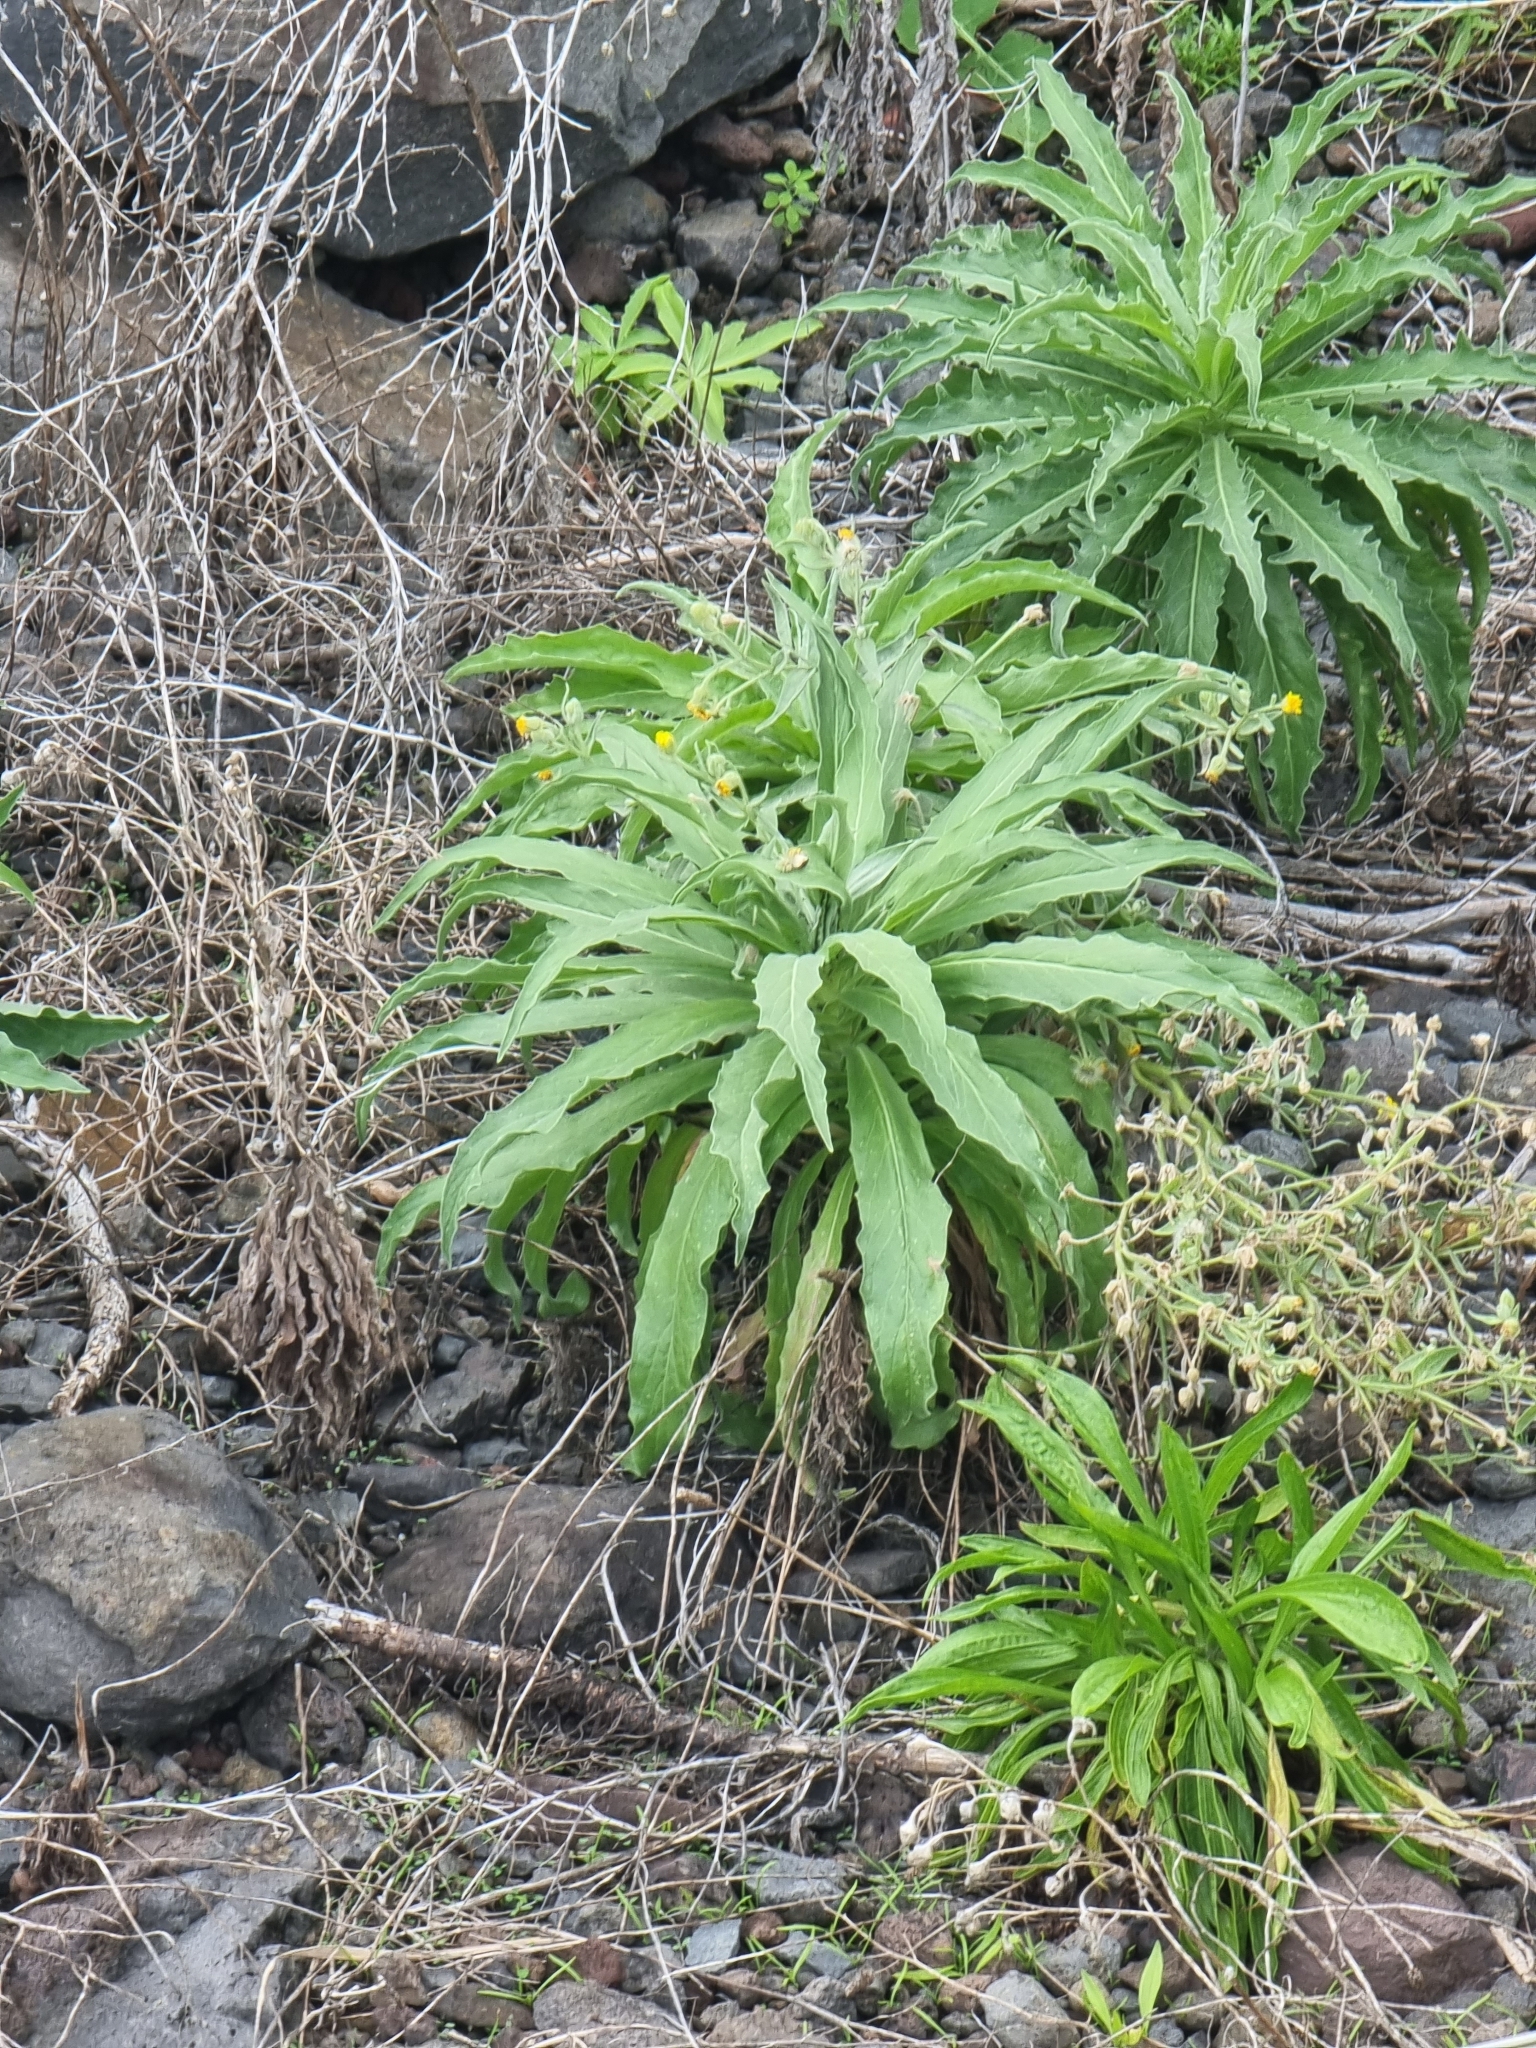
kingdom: Plantae
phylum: Tracheophyta
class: Magnoliopsida
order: Asterales
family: Asteraceae
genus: Andryala
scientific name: Andryala glandulosa
